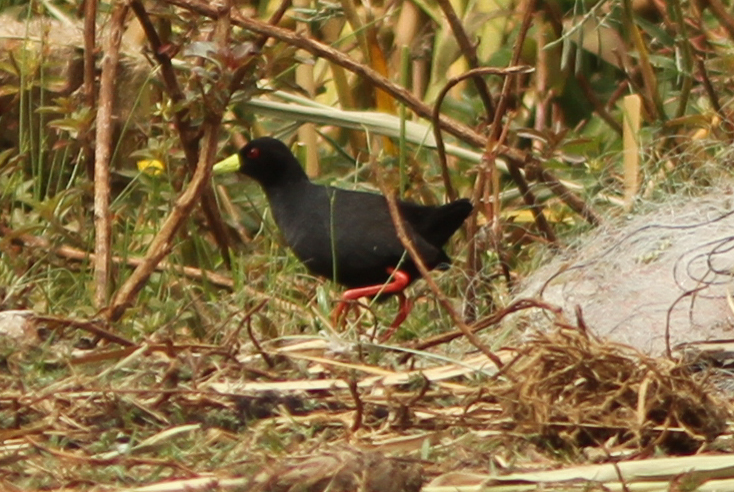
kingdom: Animalia
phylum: Chordata
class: Aves
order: Gruiformes
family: Rallidae
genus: Amaurornis
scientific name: Amaurornis flavirostra
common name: Black crake
